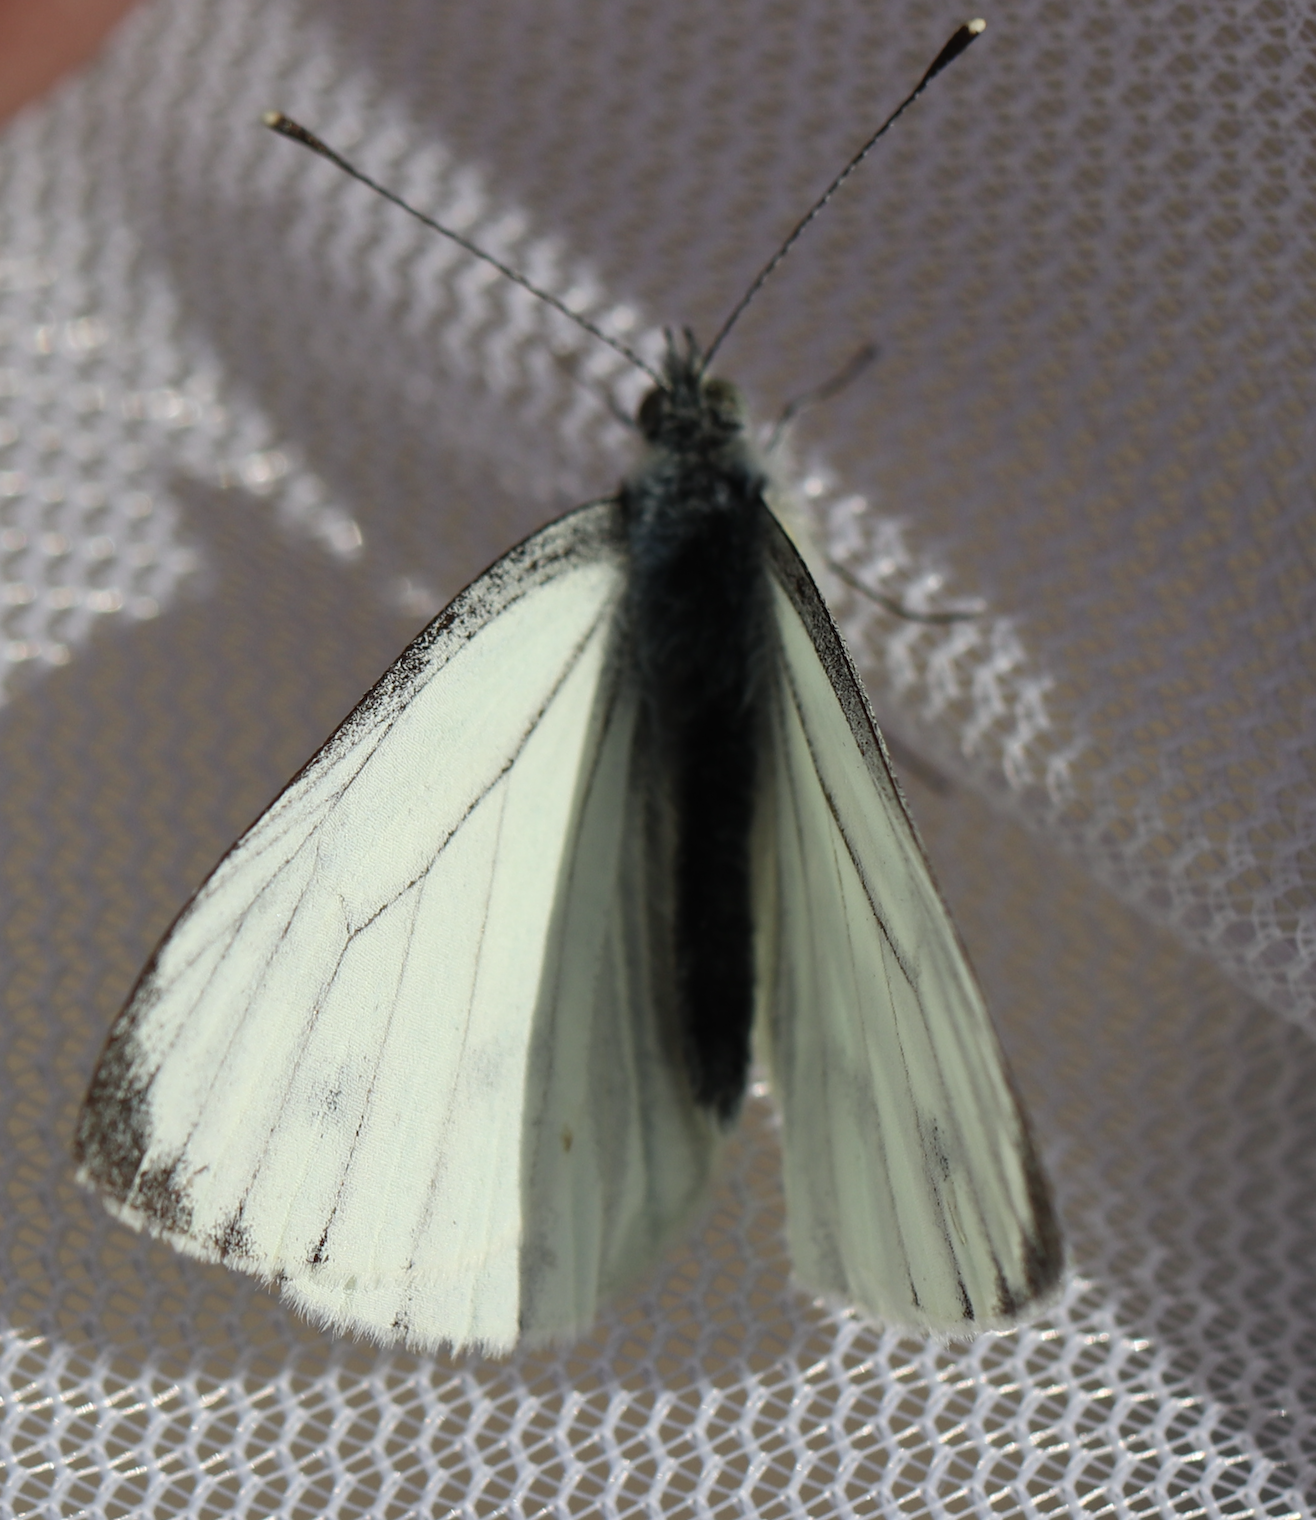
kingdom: Animalia
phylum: Arthropoda
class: Insecta
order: Lepidoptera
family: Pieridae
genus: Pieris
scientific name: Pieris napi
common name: Green-veined white
